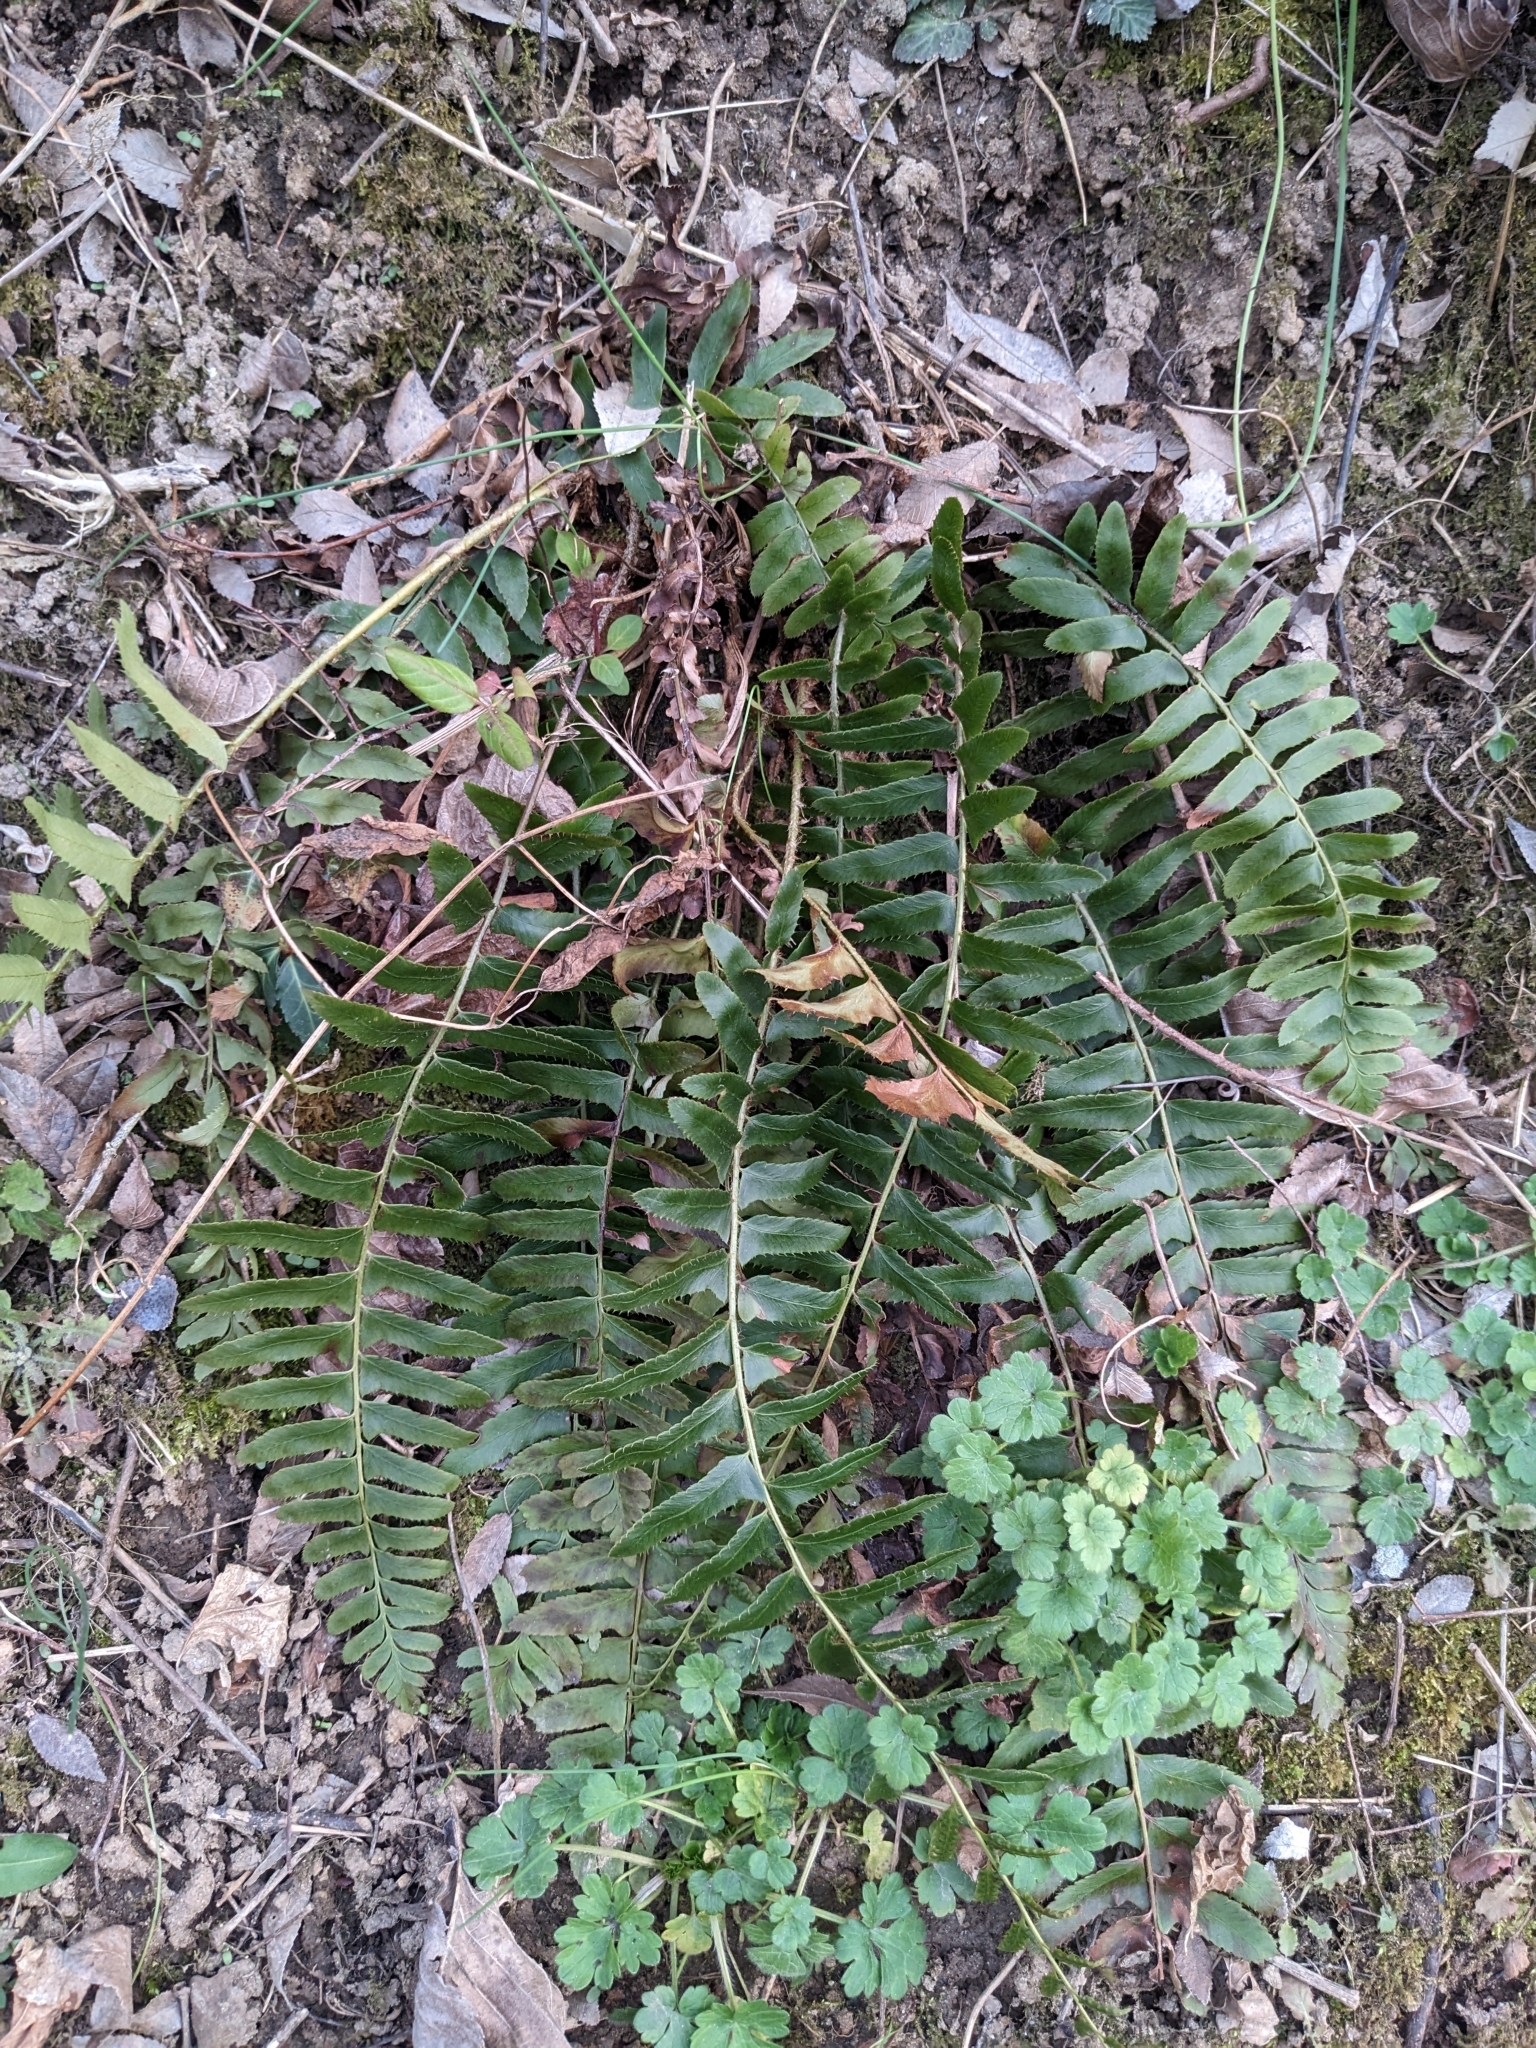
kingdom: Plantae
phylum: Tracheophyta
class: Polypodiopsida
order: Polypodiales
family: Dryopteridaceae
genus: Polystichum
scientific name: Polystichum acrostichoides
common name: Christmas fern
